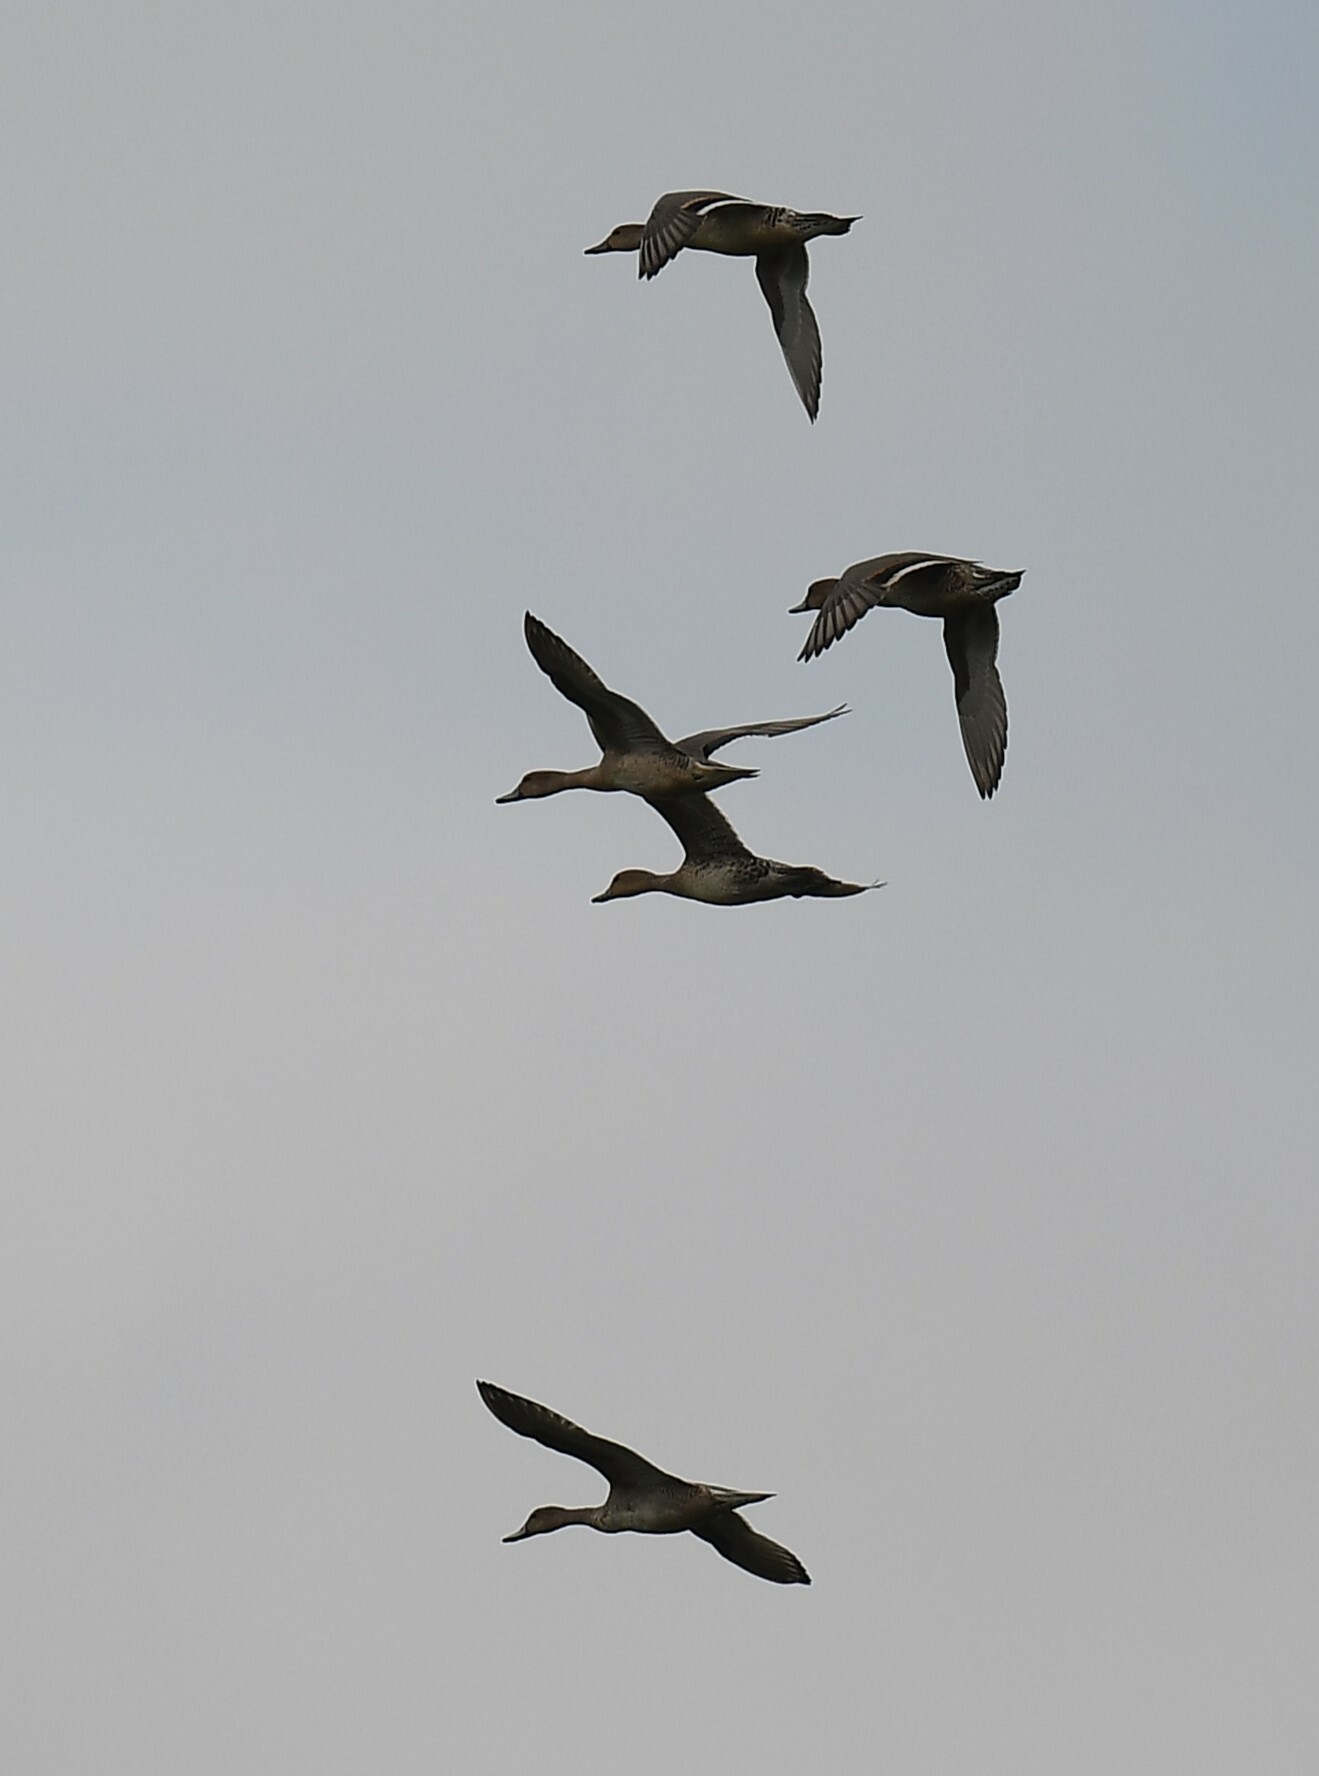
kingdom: Animalia
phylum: Chordata
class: Aves
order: Anseriformes
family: Anatidae
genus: Anas
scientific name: Anas acuta
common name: Northern pintail
